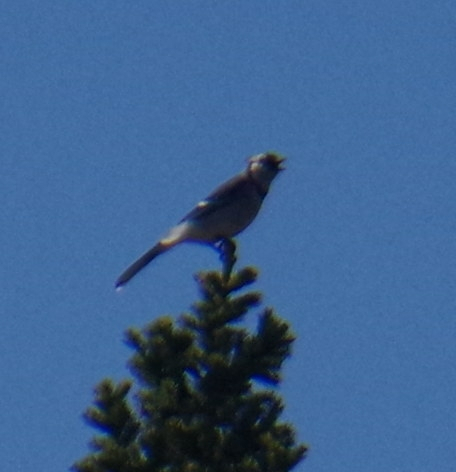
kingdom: Animalia
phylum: Chordata
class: Aves
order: Passeriformes
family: Corvidae
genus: Cyanocitta
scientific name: Cyanocitta cristata
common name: Blue jay
